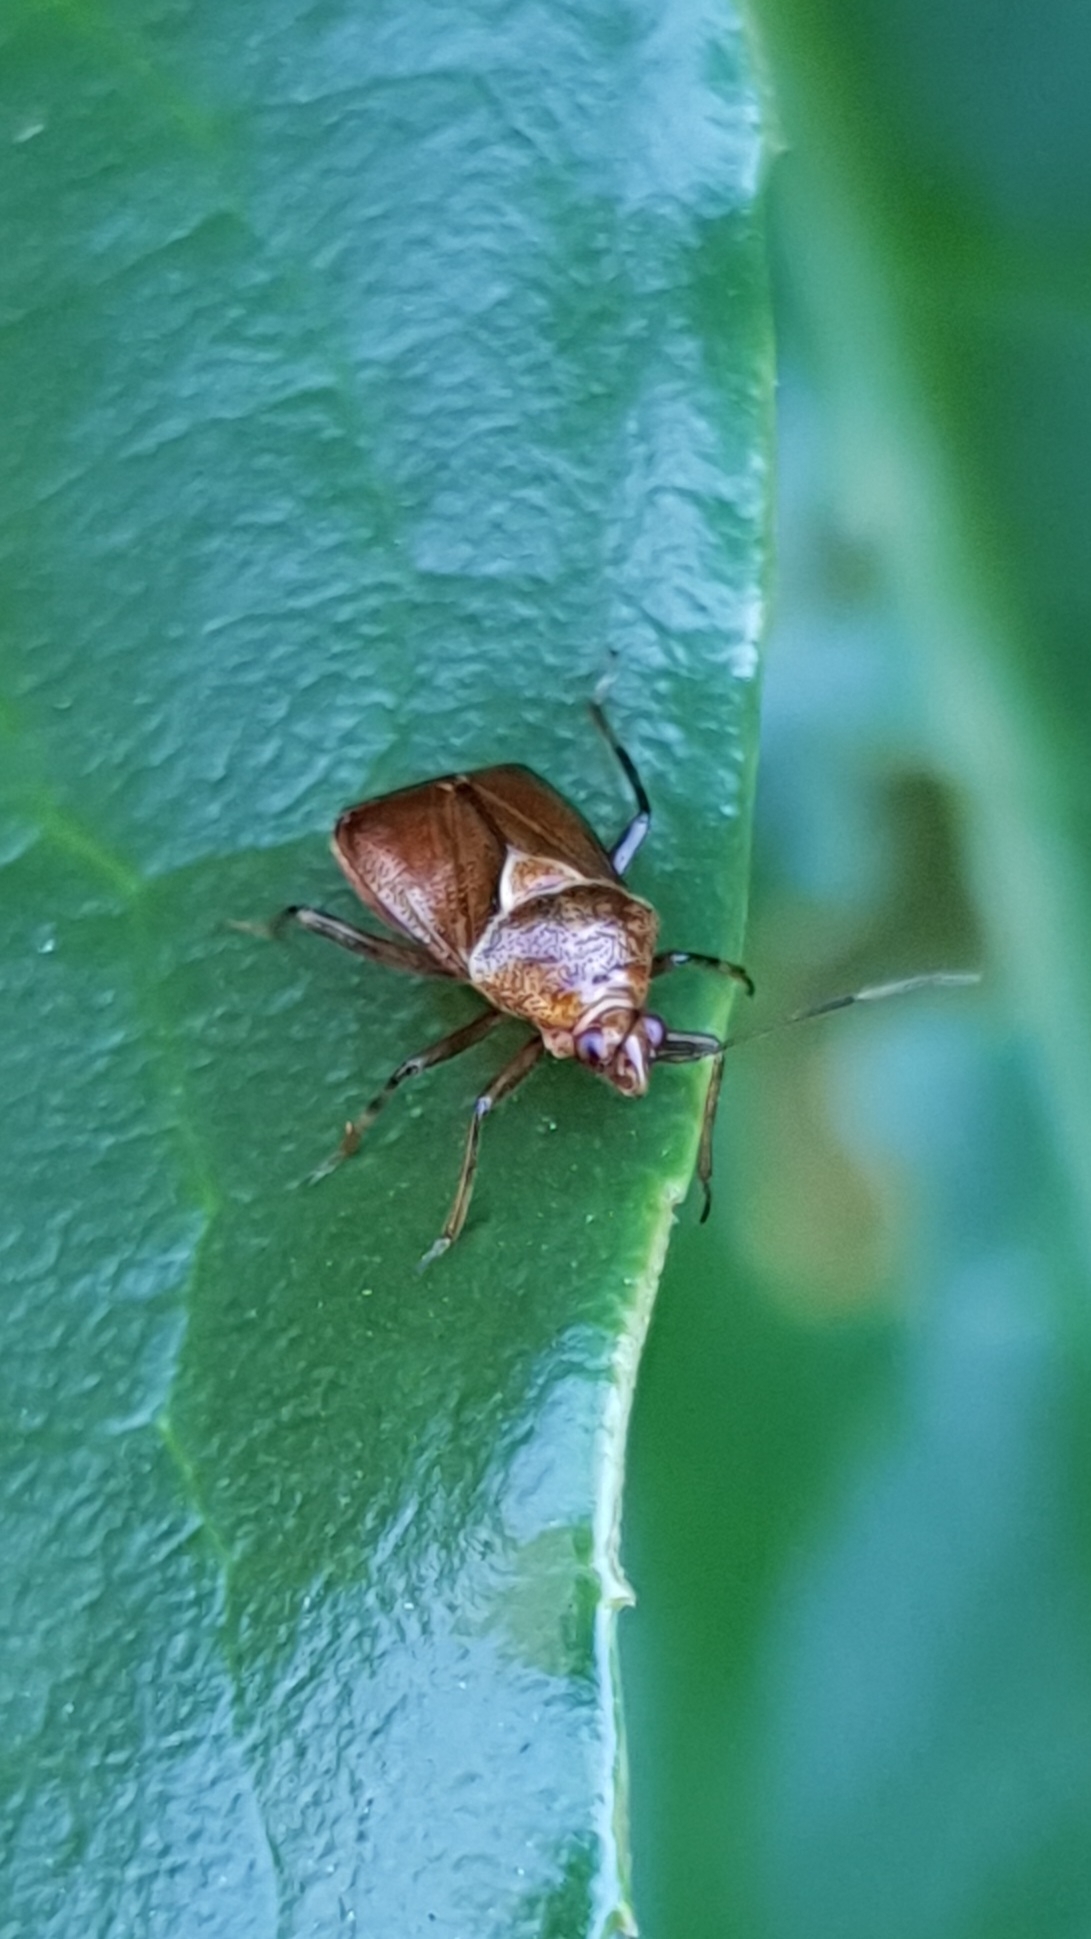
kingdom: Animalia
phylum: Arthropoda
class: Insecta
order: Hemiptera
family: Miridae
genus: Deraeocoris
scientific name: Deraeocoris flavilinea
